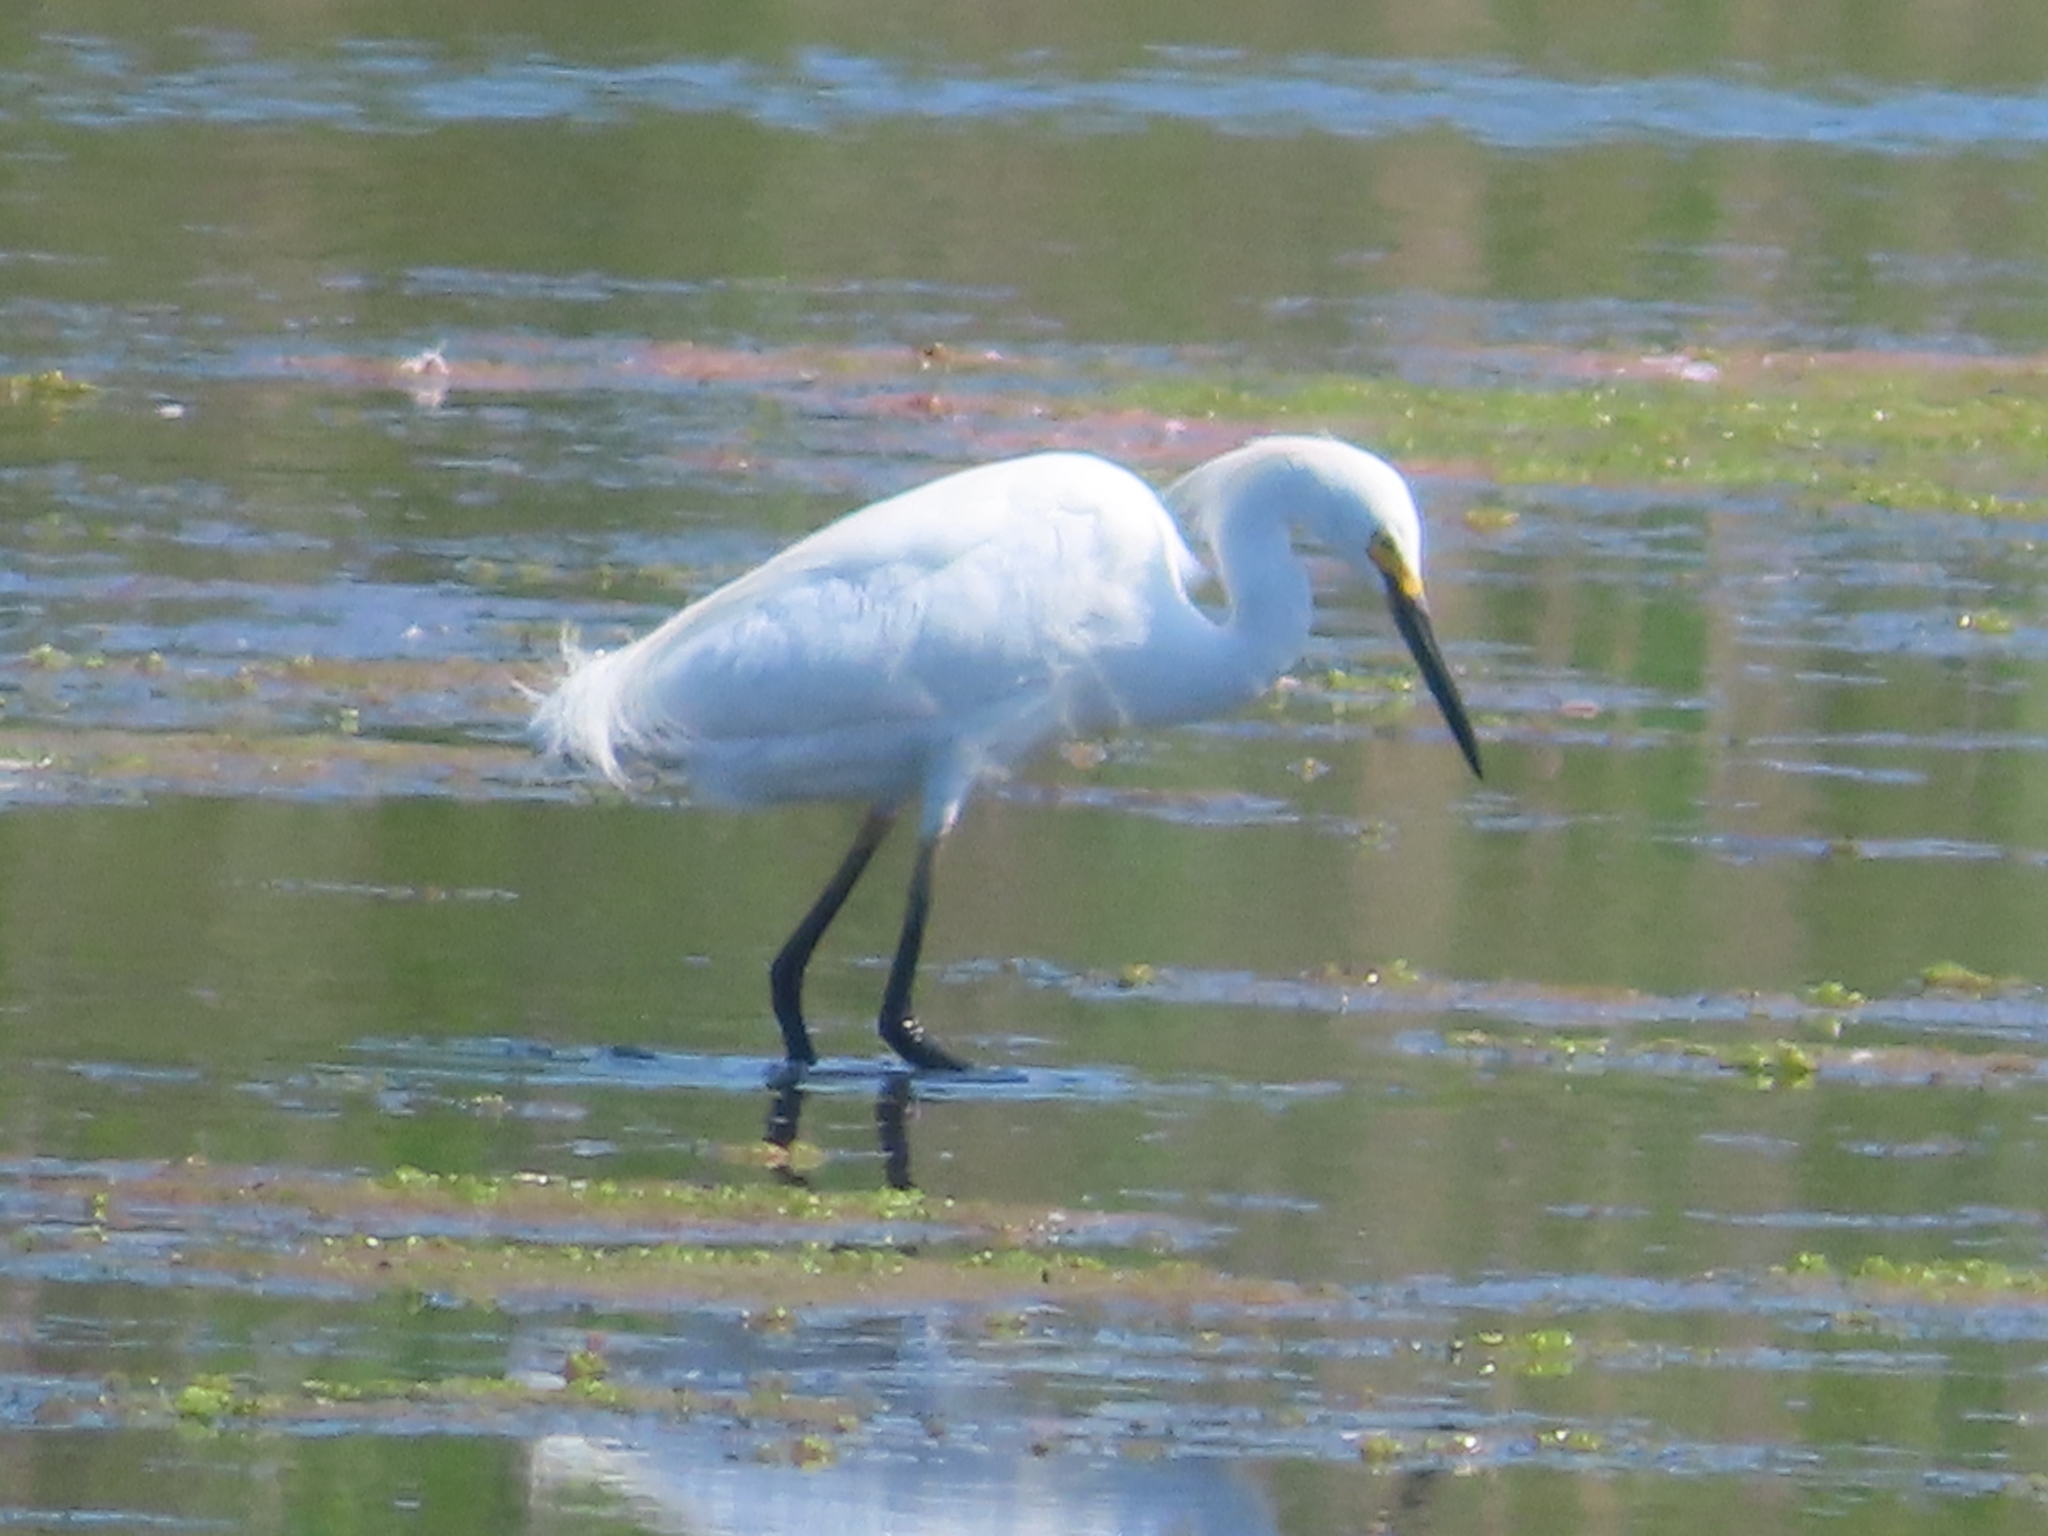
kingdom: Animalia
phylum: Chordata
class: Aves
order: Pelecaniformes
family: Ardeidae
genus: Egretta
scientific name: Egretta thula
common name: Snowy egret
